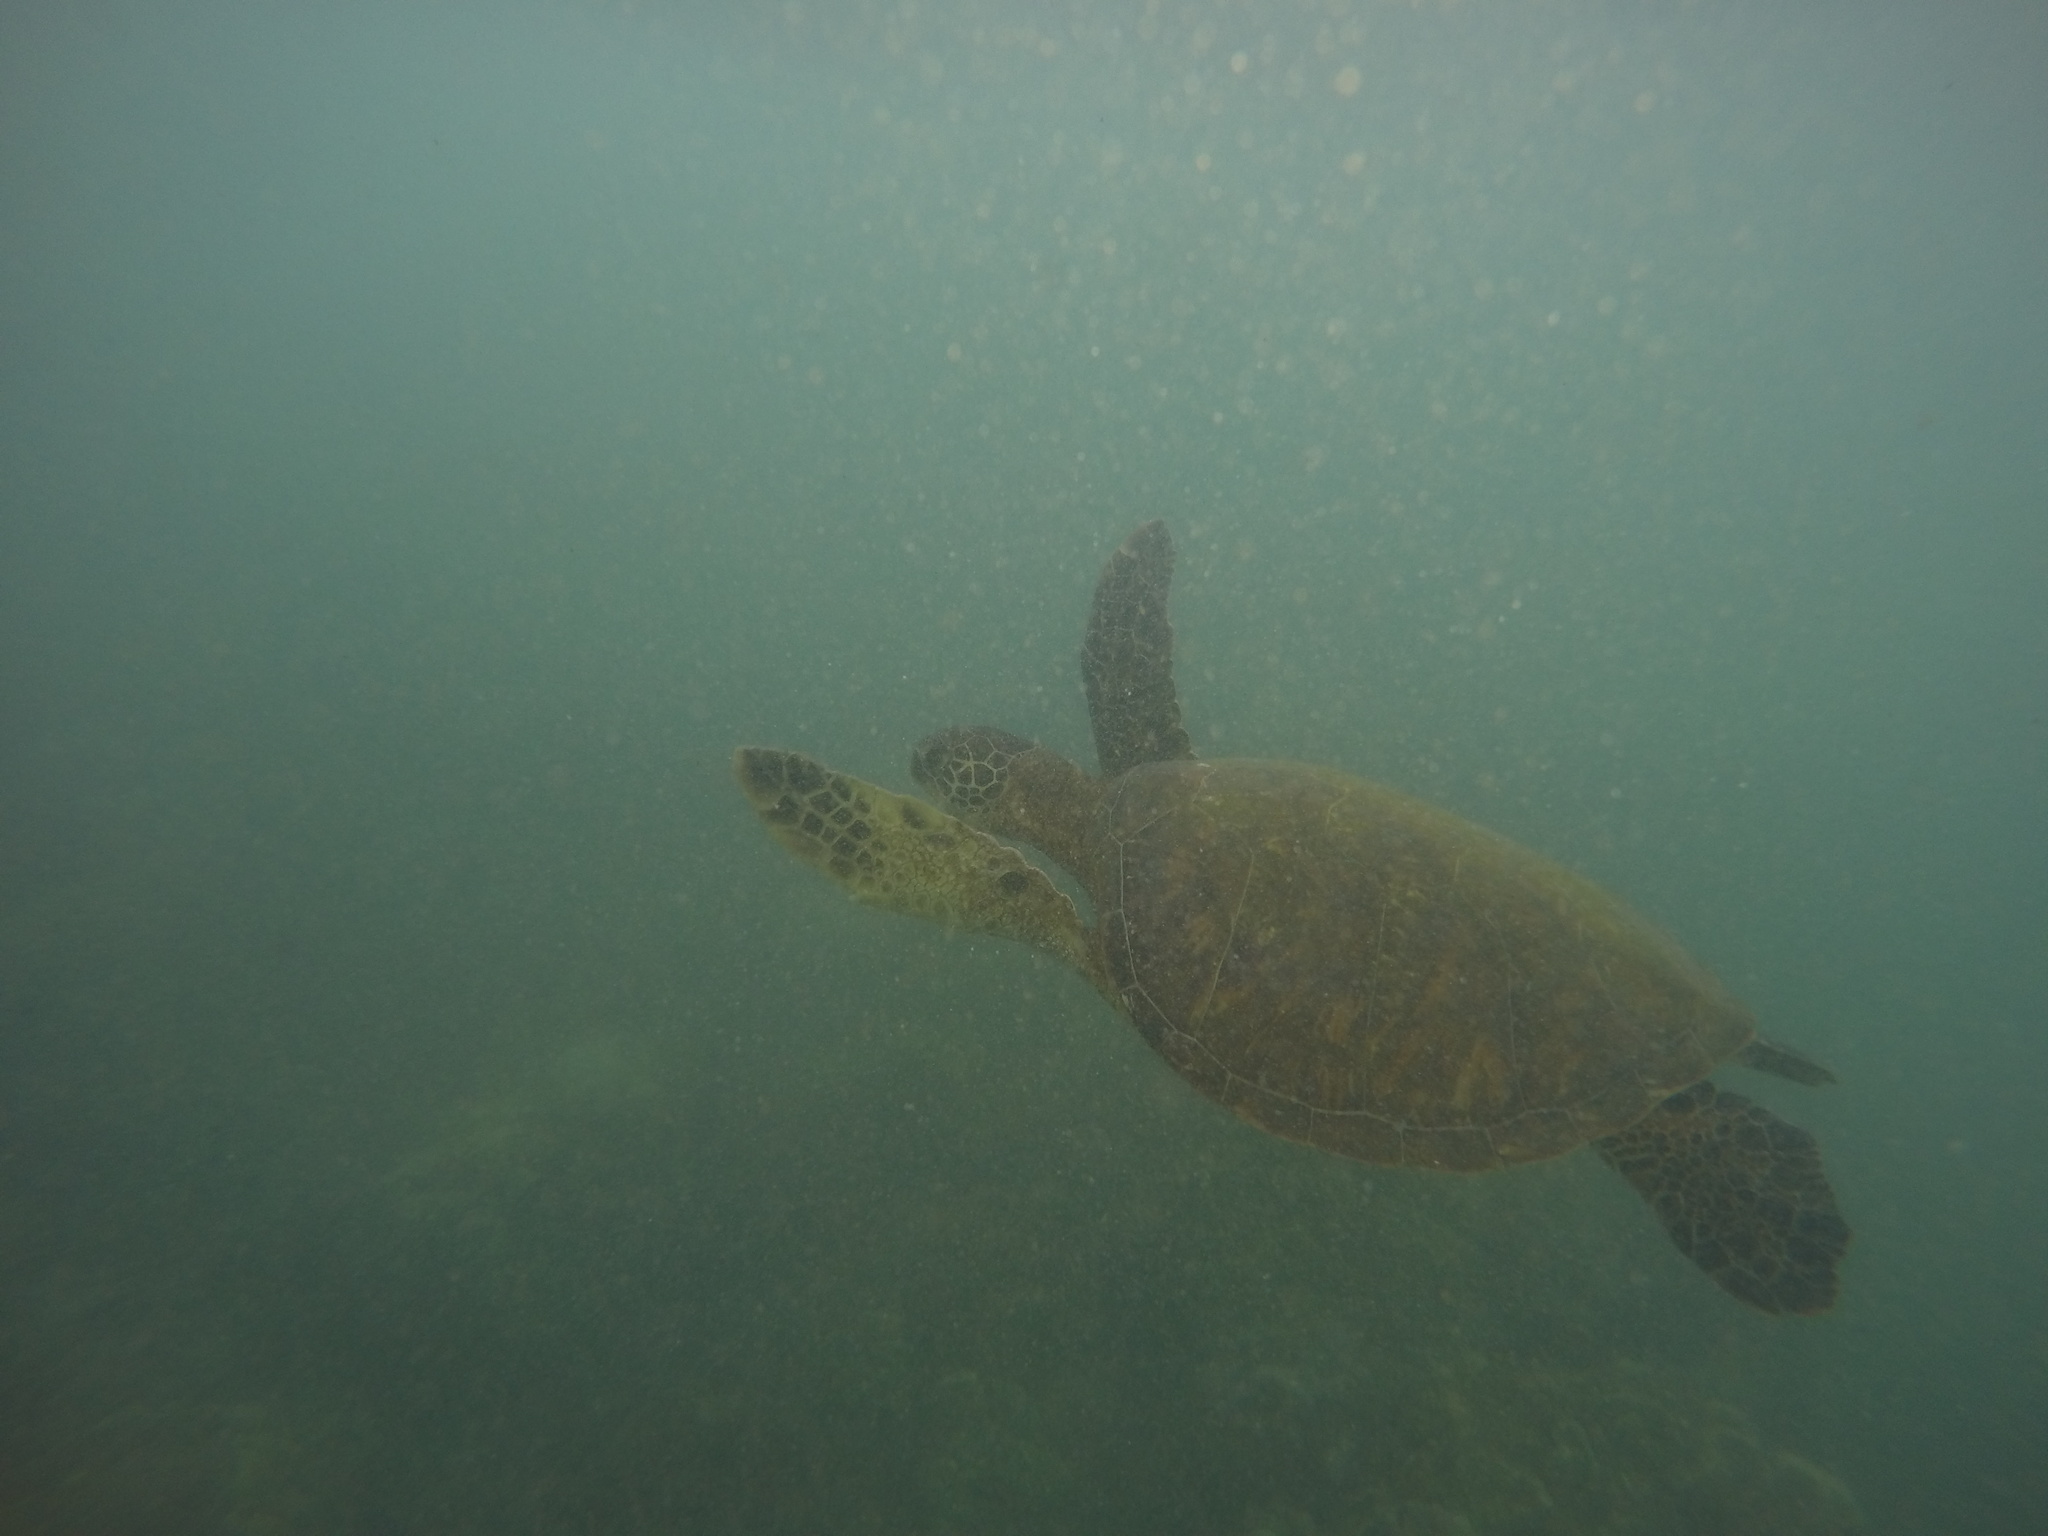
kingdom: Animalia
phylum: Chordata
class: Testudines
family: Cheloniidae
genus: Chelonia
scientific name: Chelonia mydas
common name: Green turtle
